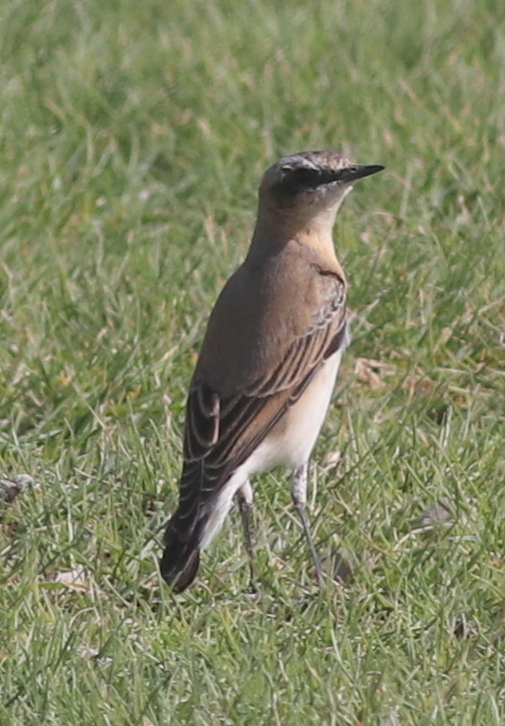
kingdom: Animalia
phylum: Chordata
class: Aves
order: Passeriformes
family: Muscicapidae
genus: Oenanthe
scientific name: Oenanthe oenanthe
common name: Northern wheatear
